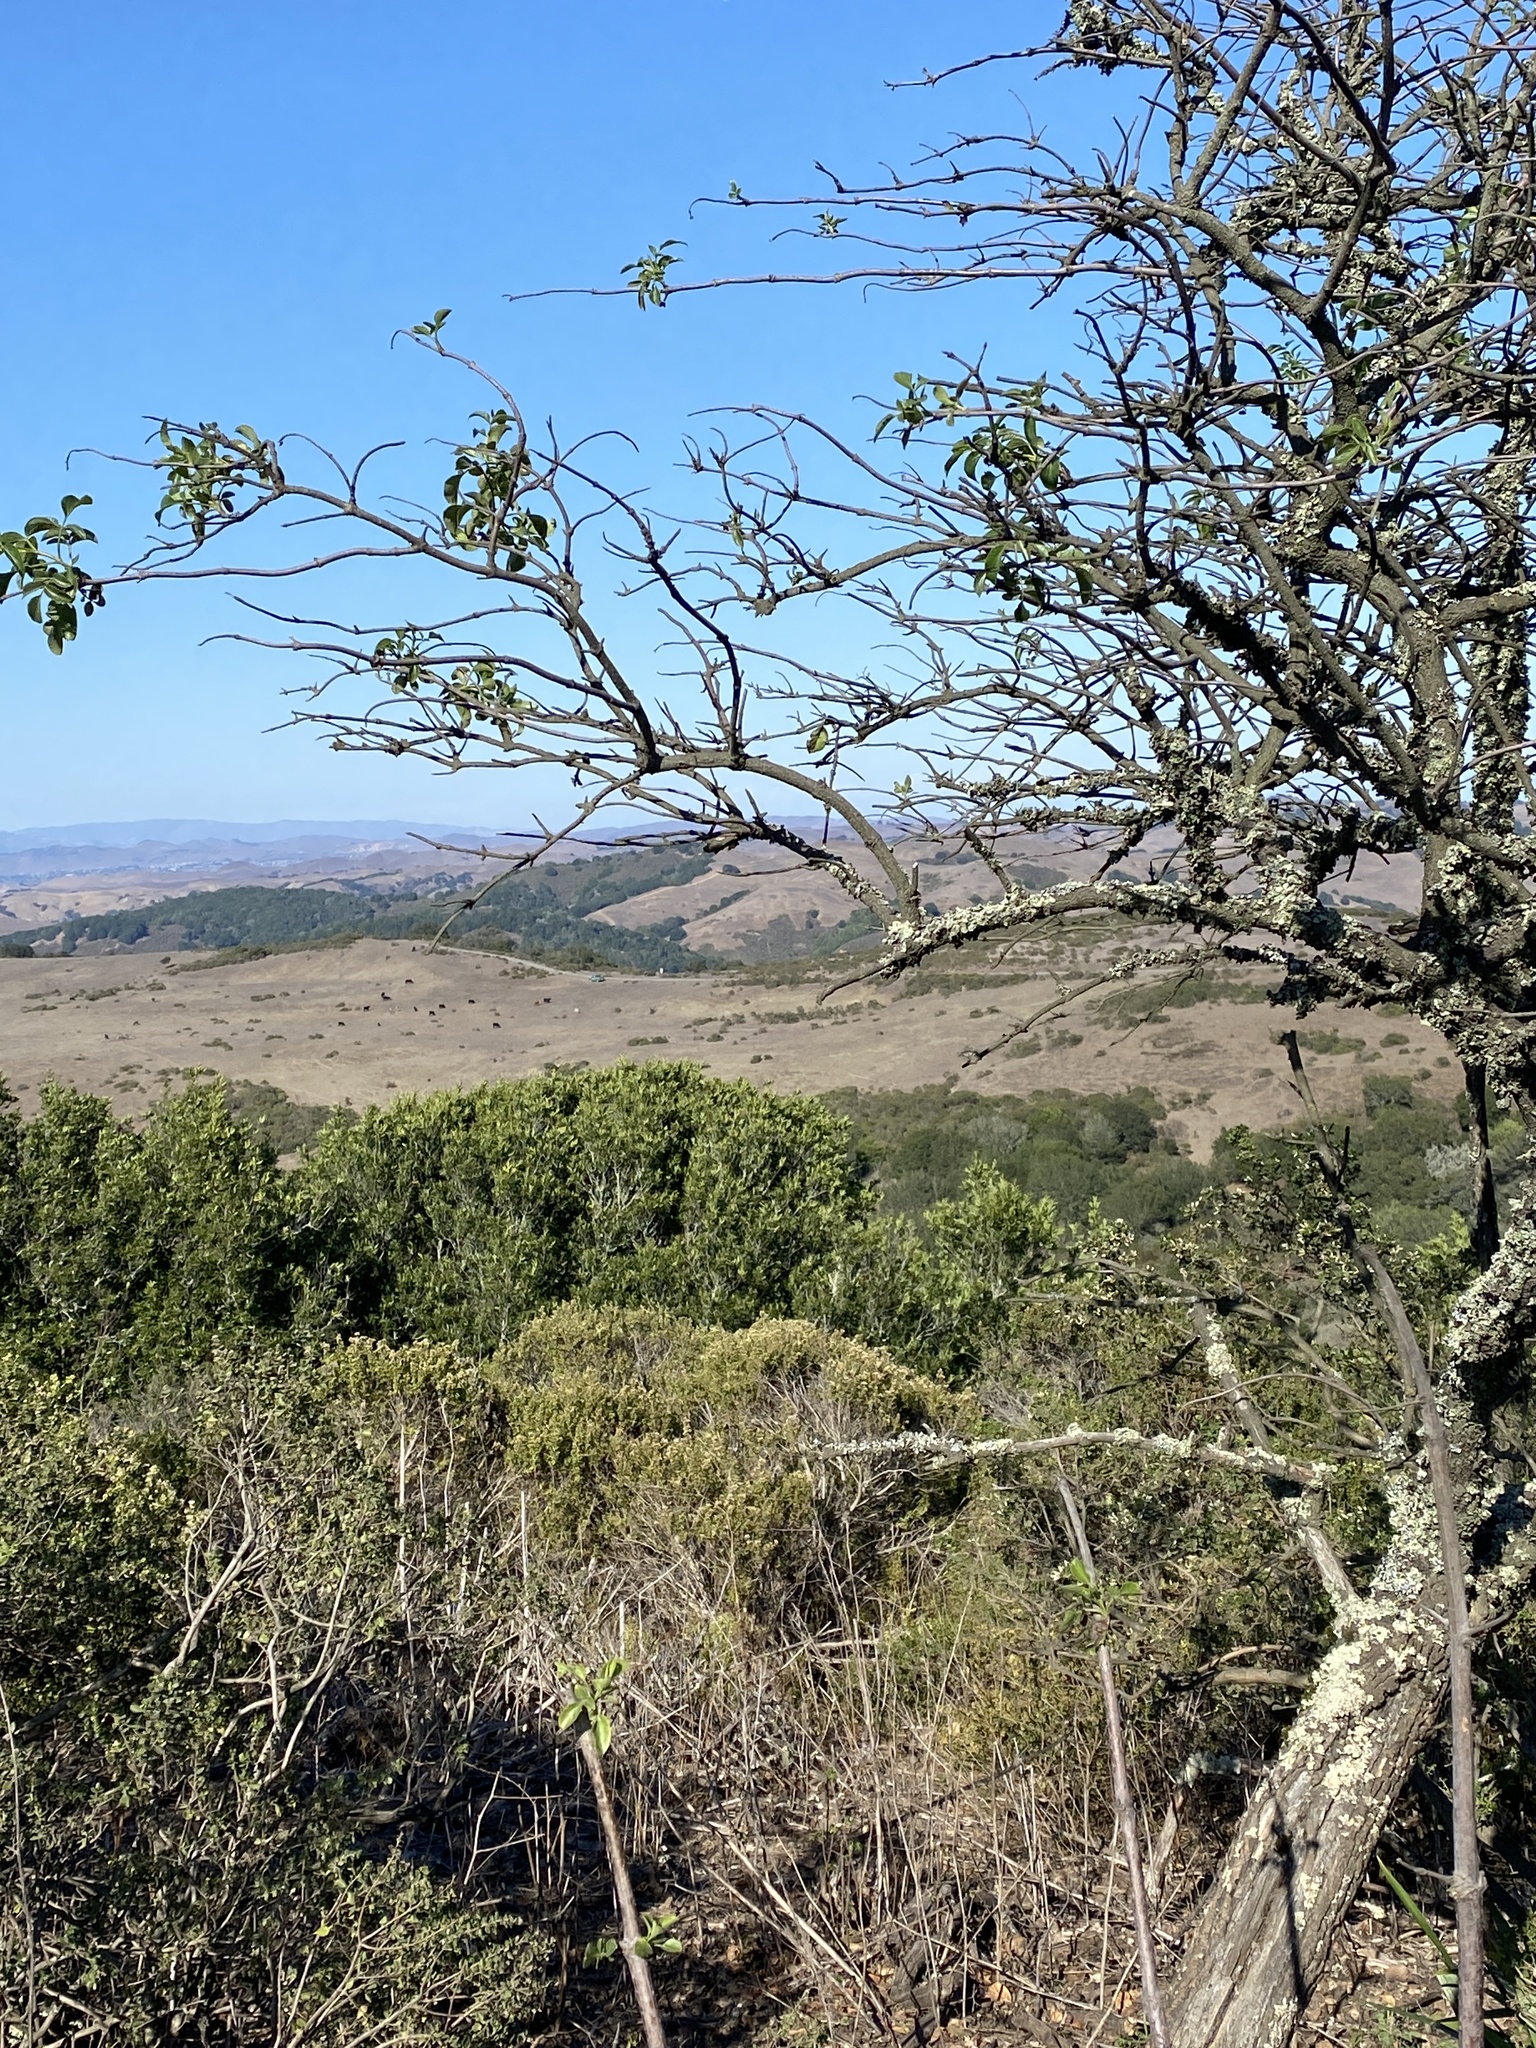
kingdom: Plantae
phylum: Tracheophyta
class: Magnoliopsida
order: Dipsacales
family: Viburnaceae
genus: Sambucus
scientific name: Sambucus cerulea
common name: Blue elder
